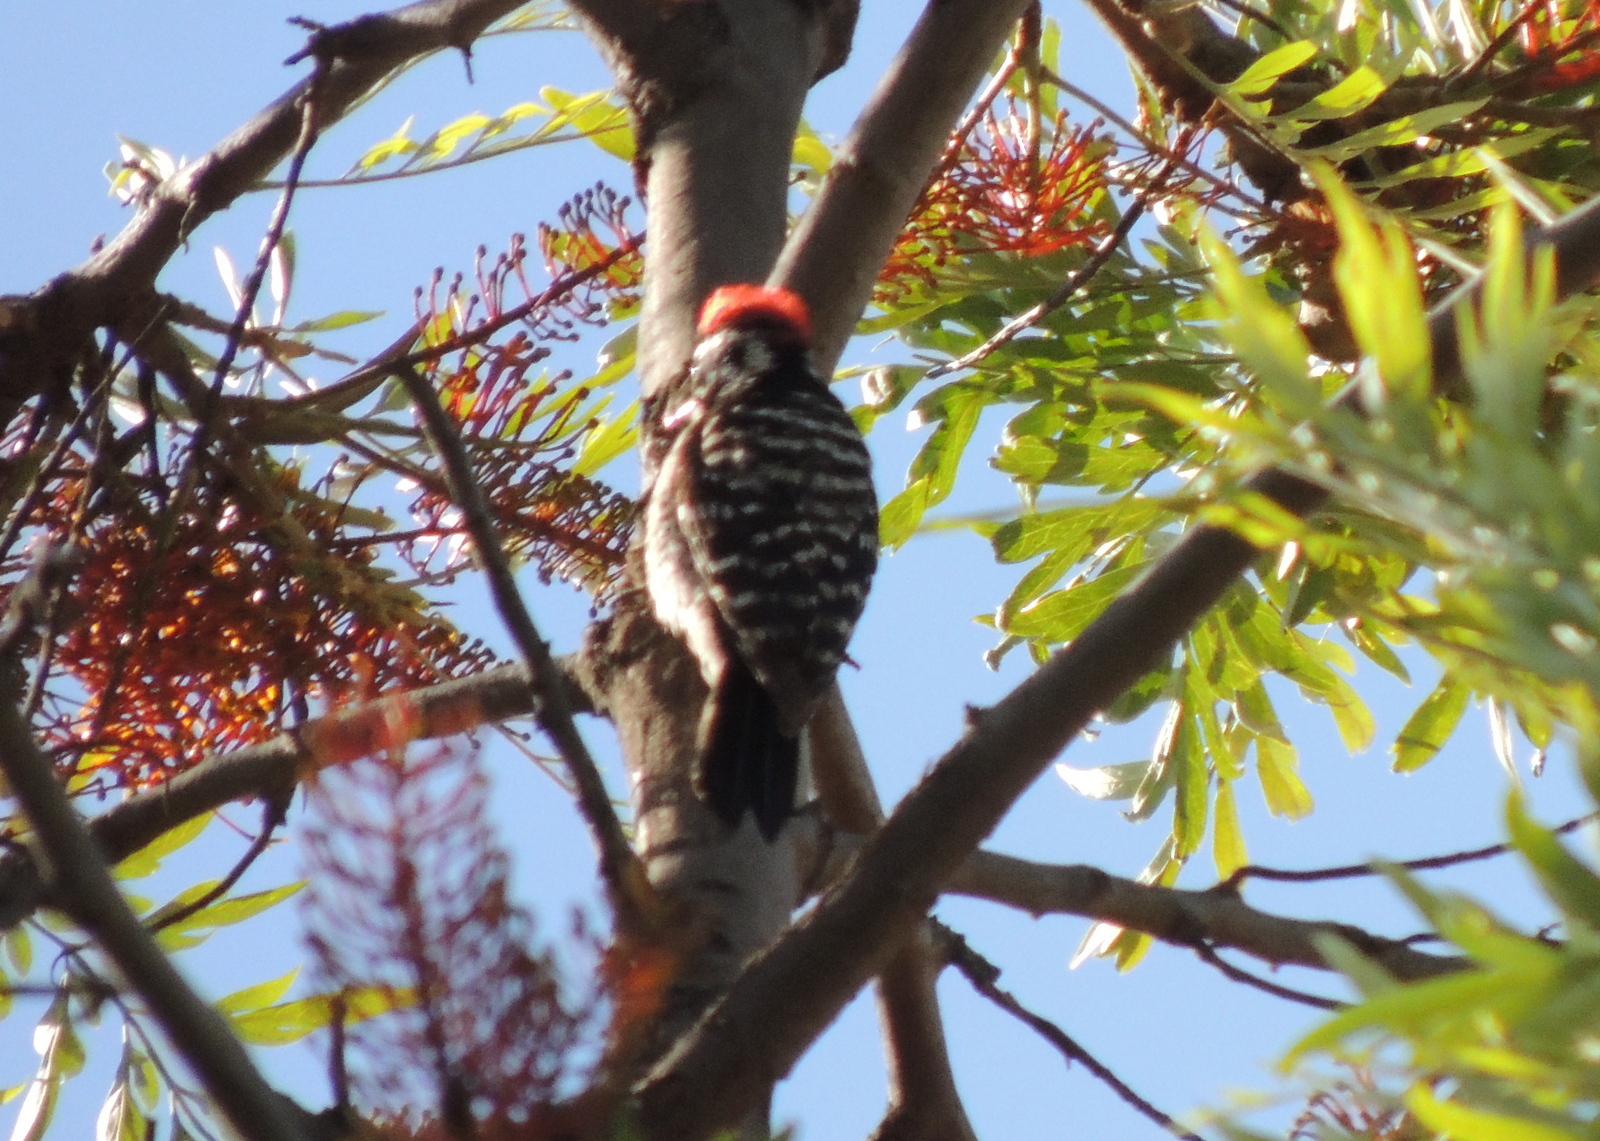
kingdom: Animalia
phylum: Chordata
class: Aves
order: Piciformes
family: Picidae
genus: Dryobates
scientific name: Dryobates nuttallii
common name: Nuttall's woodpecker
